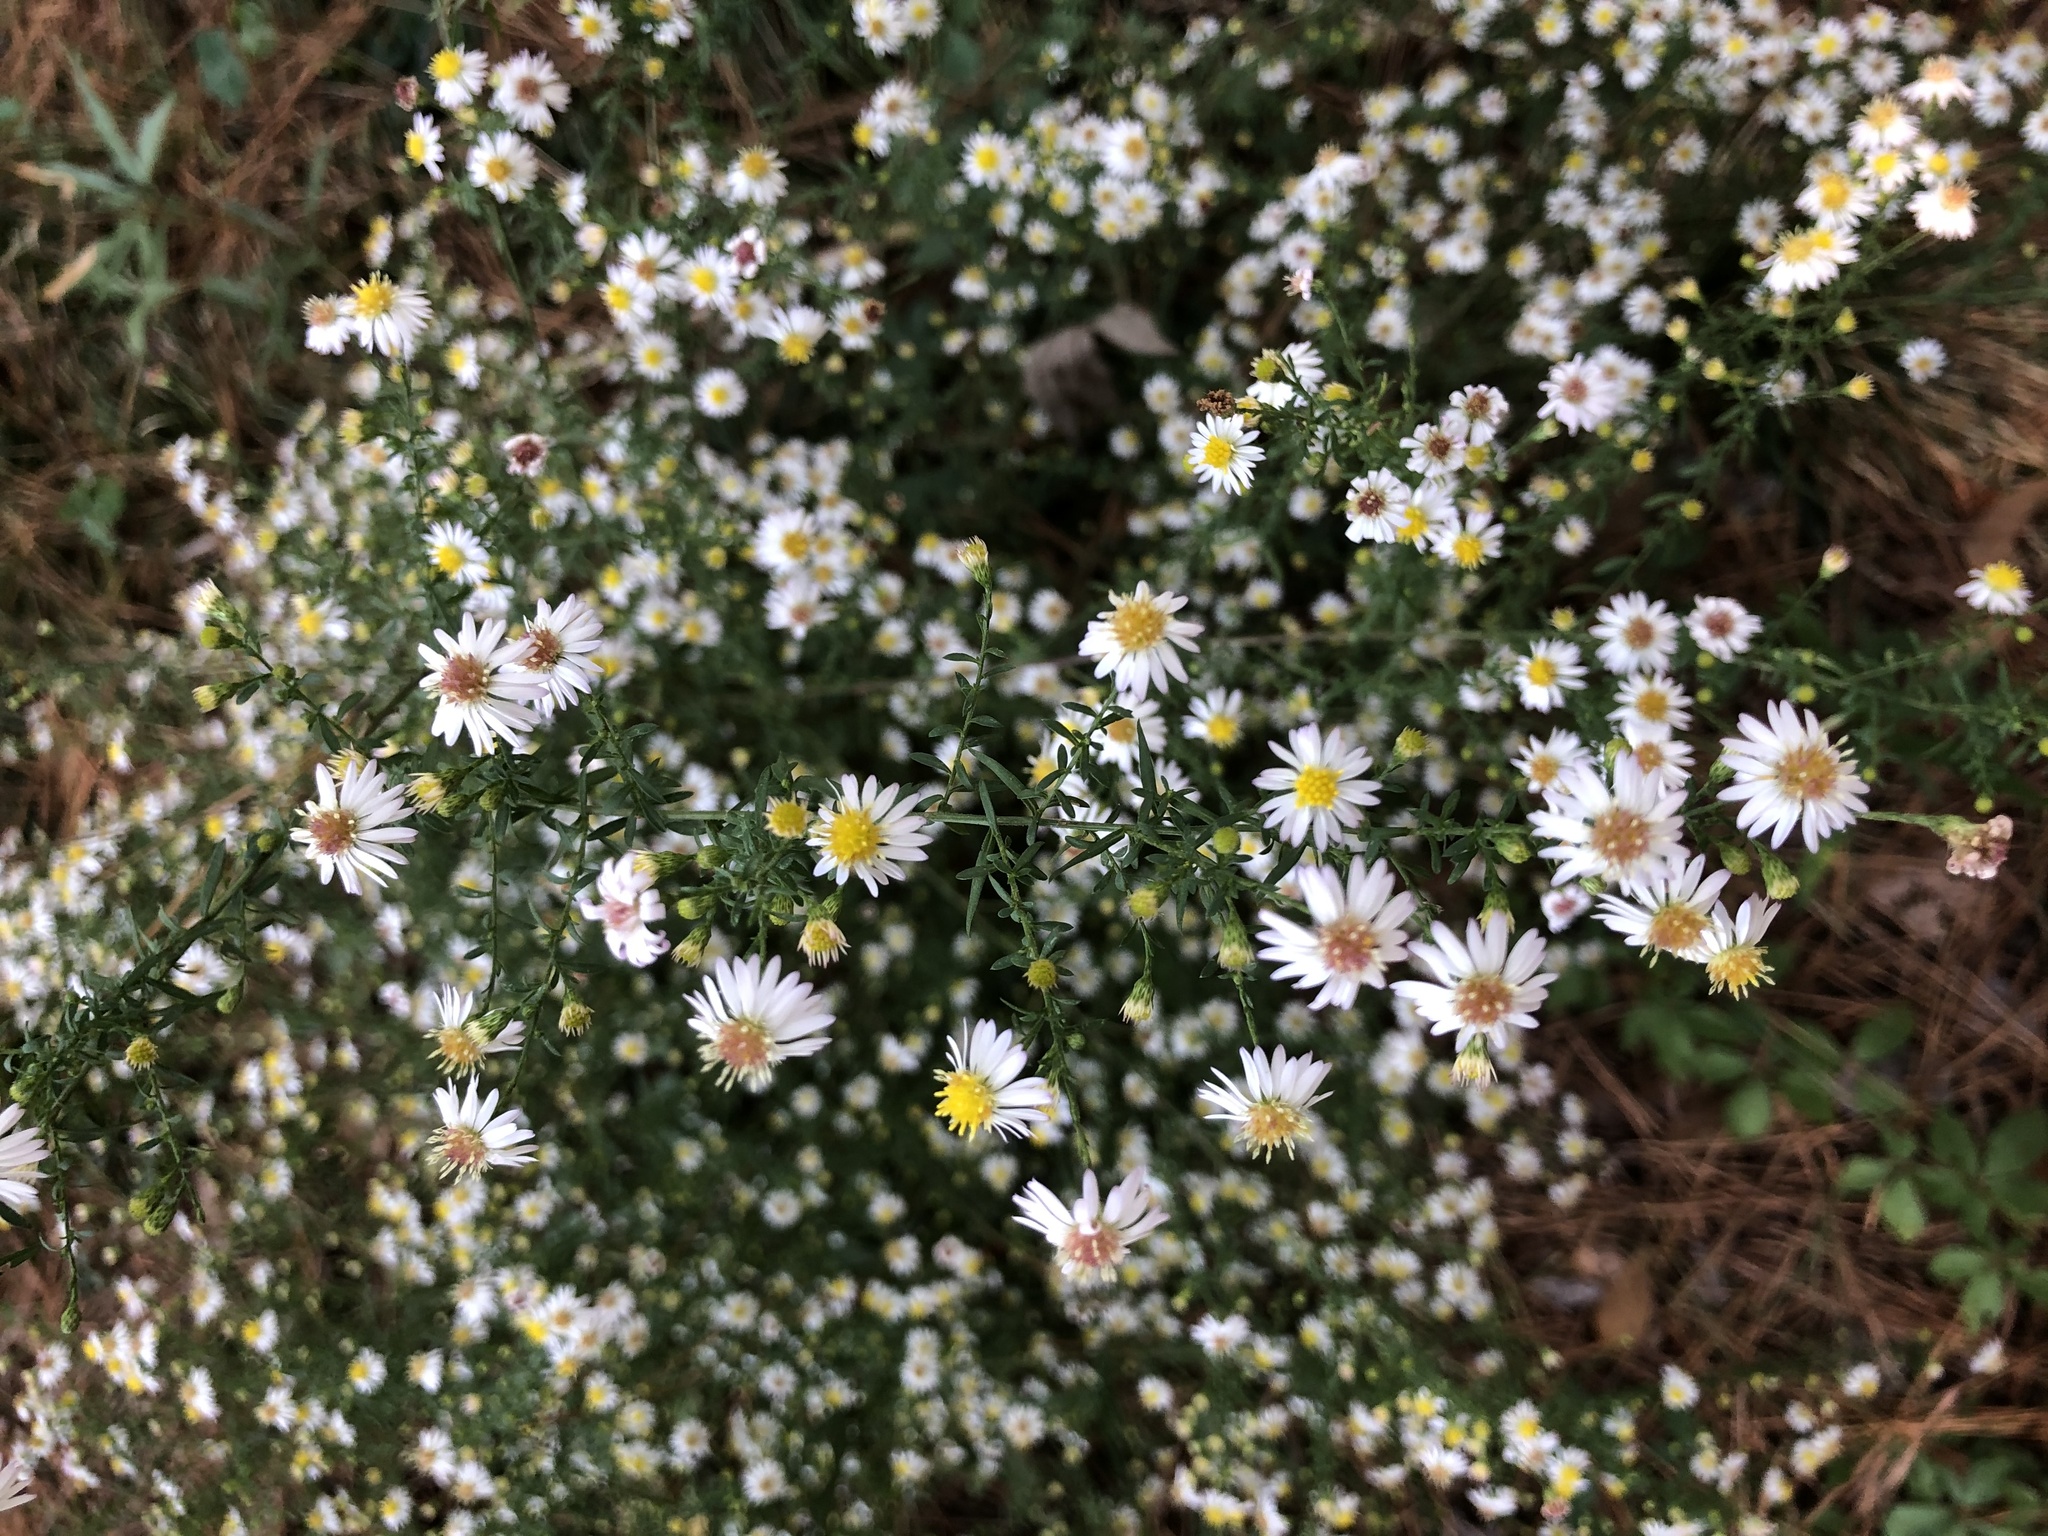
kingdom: Plantae
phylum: Tracheophyta
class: Magnoliopsida
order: Asterales
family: Asteraceae
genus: Symphyotrichum
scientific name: Symphyotrichum racemosum
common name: Small white aster
